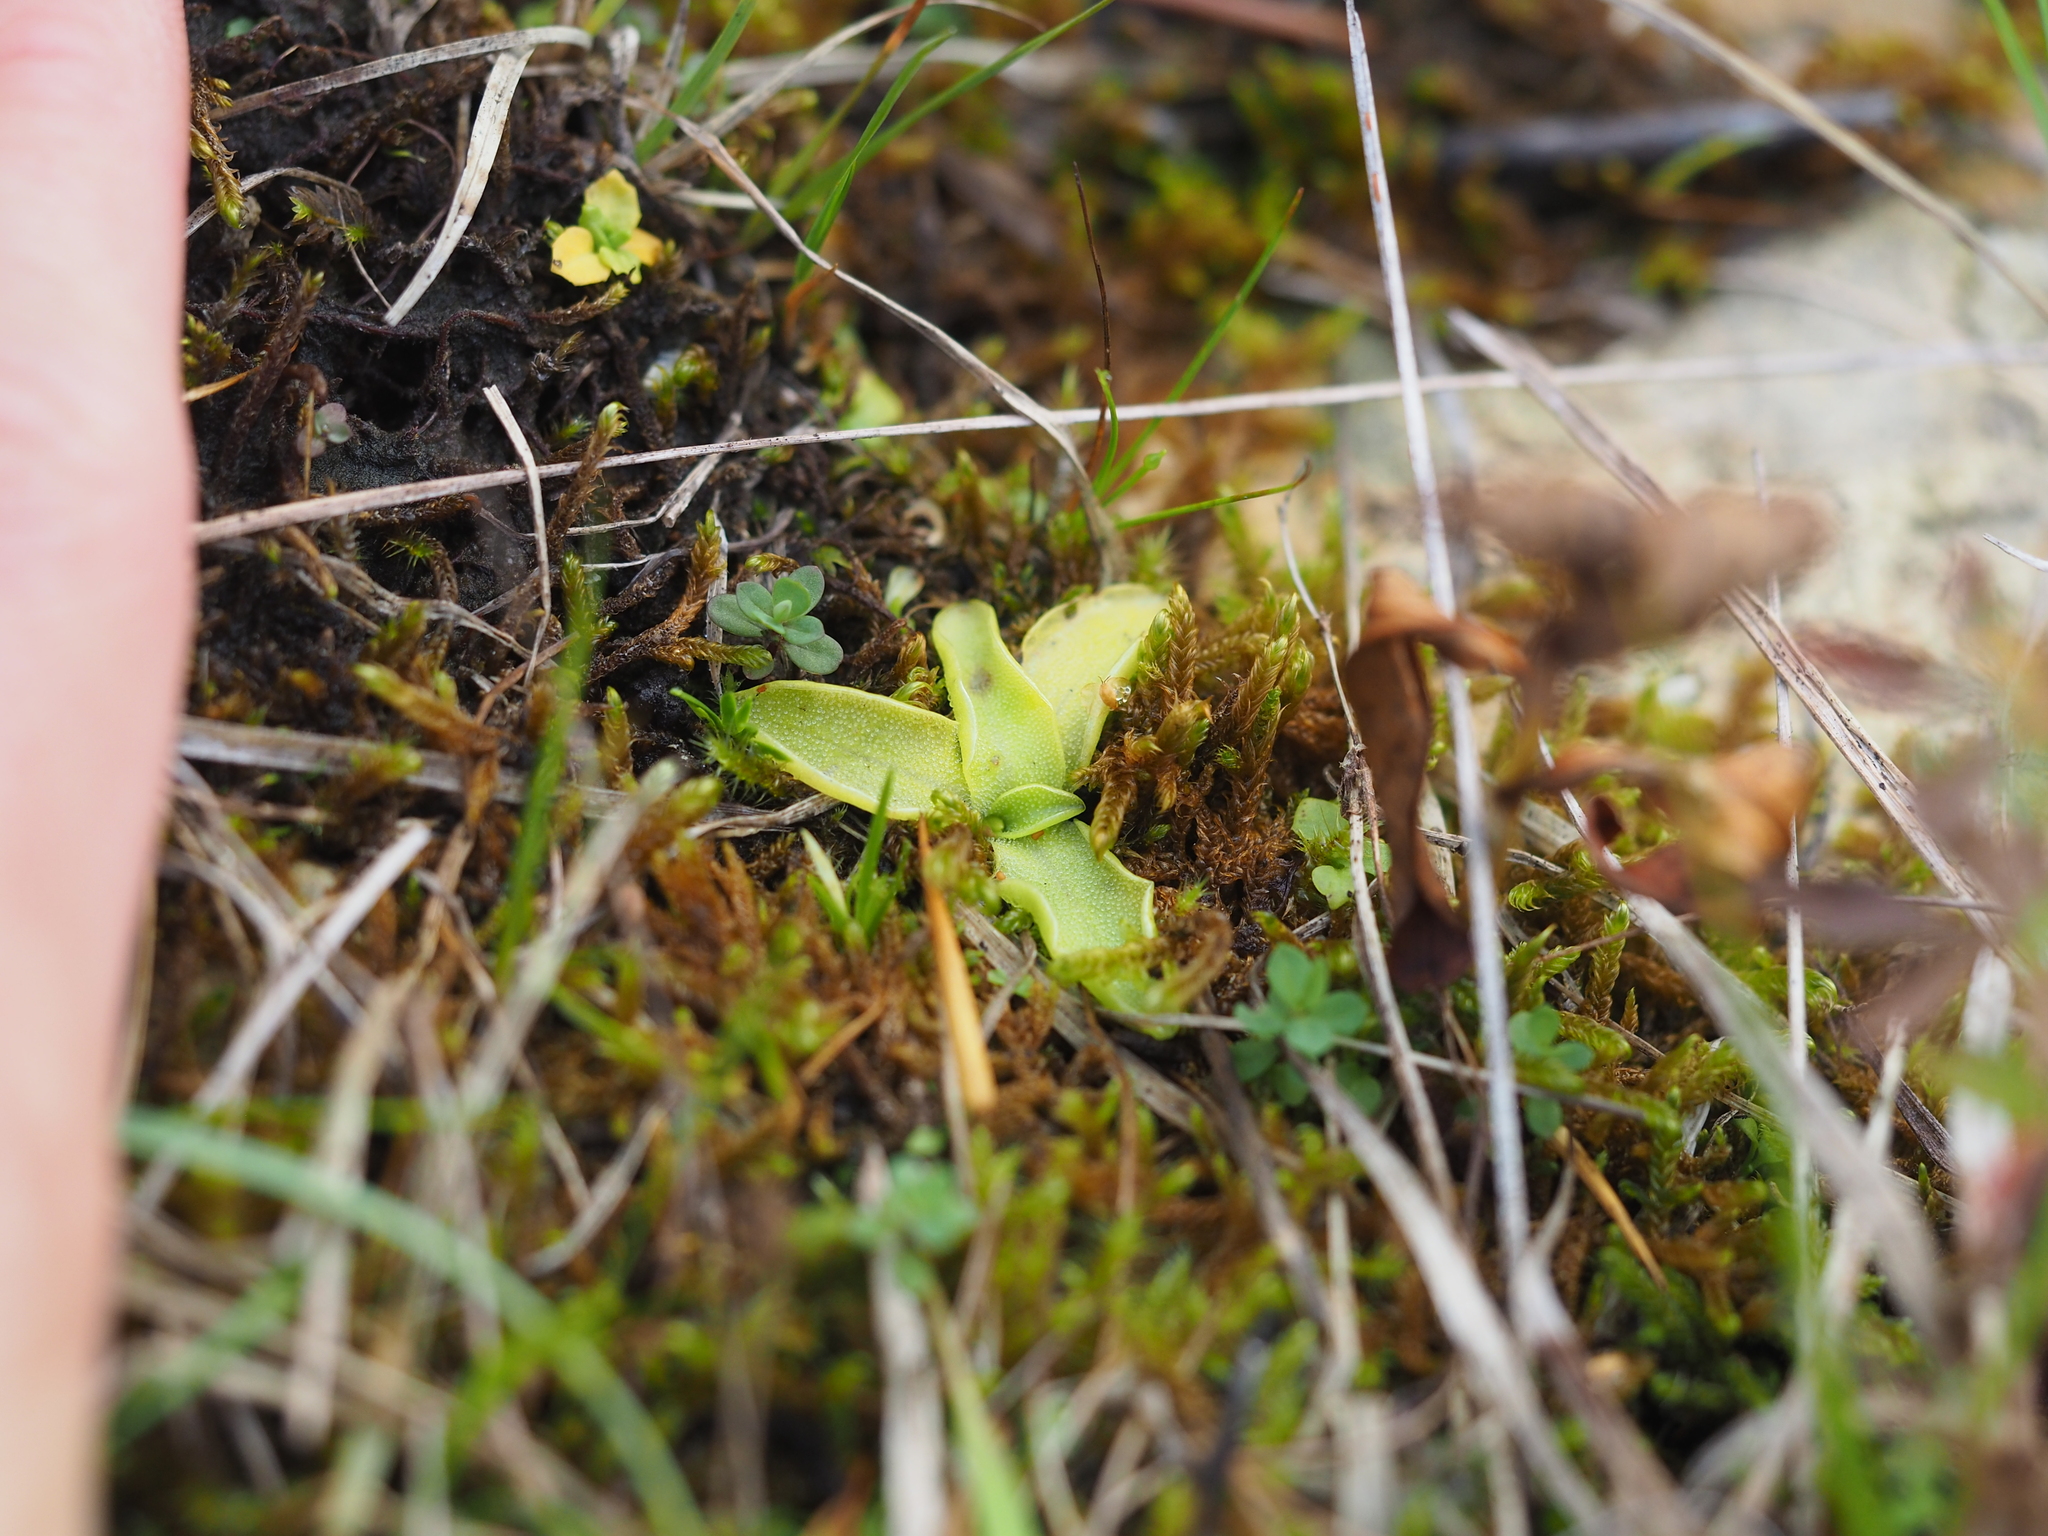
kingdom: Plantae
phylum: Tracheophyta
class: Magnoliopsida
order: Lamiales
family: Lentibulariaceae
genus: Pinguicula
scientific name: Pinguicula vulgaris
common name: Common butterwort
